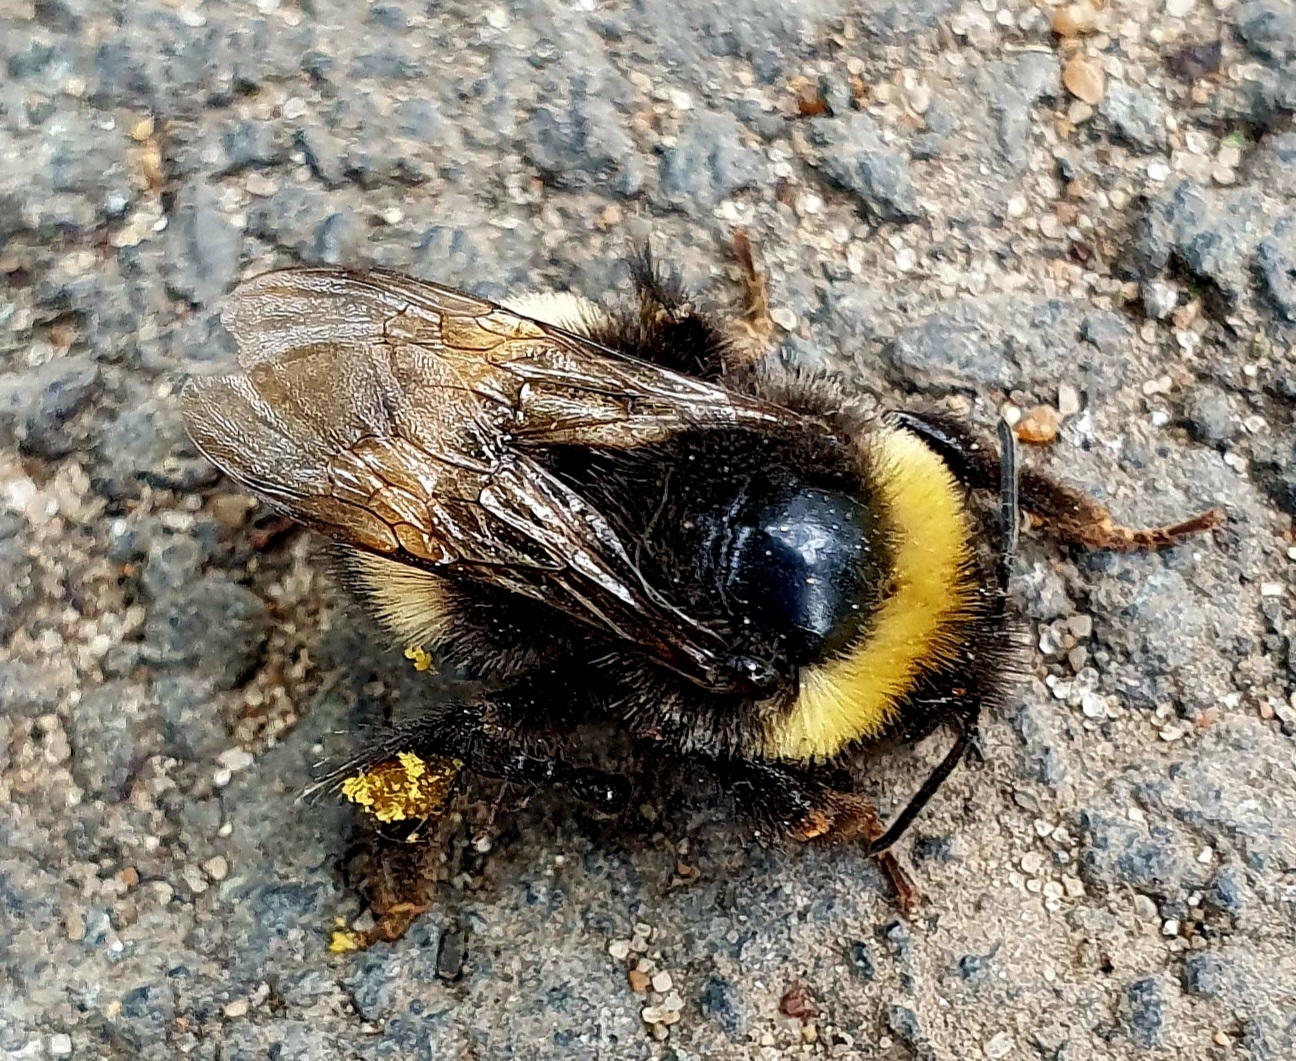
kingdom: Animalia
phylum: Arthropoda
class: Insecta
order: Hymenoptera
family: Apidae
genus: Bombus
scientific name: Bombus
